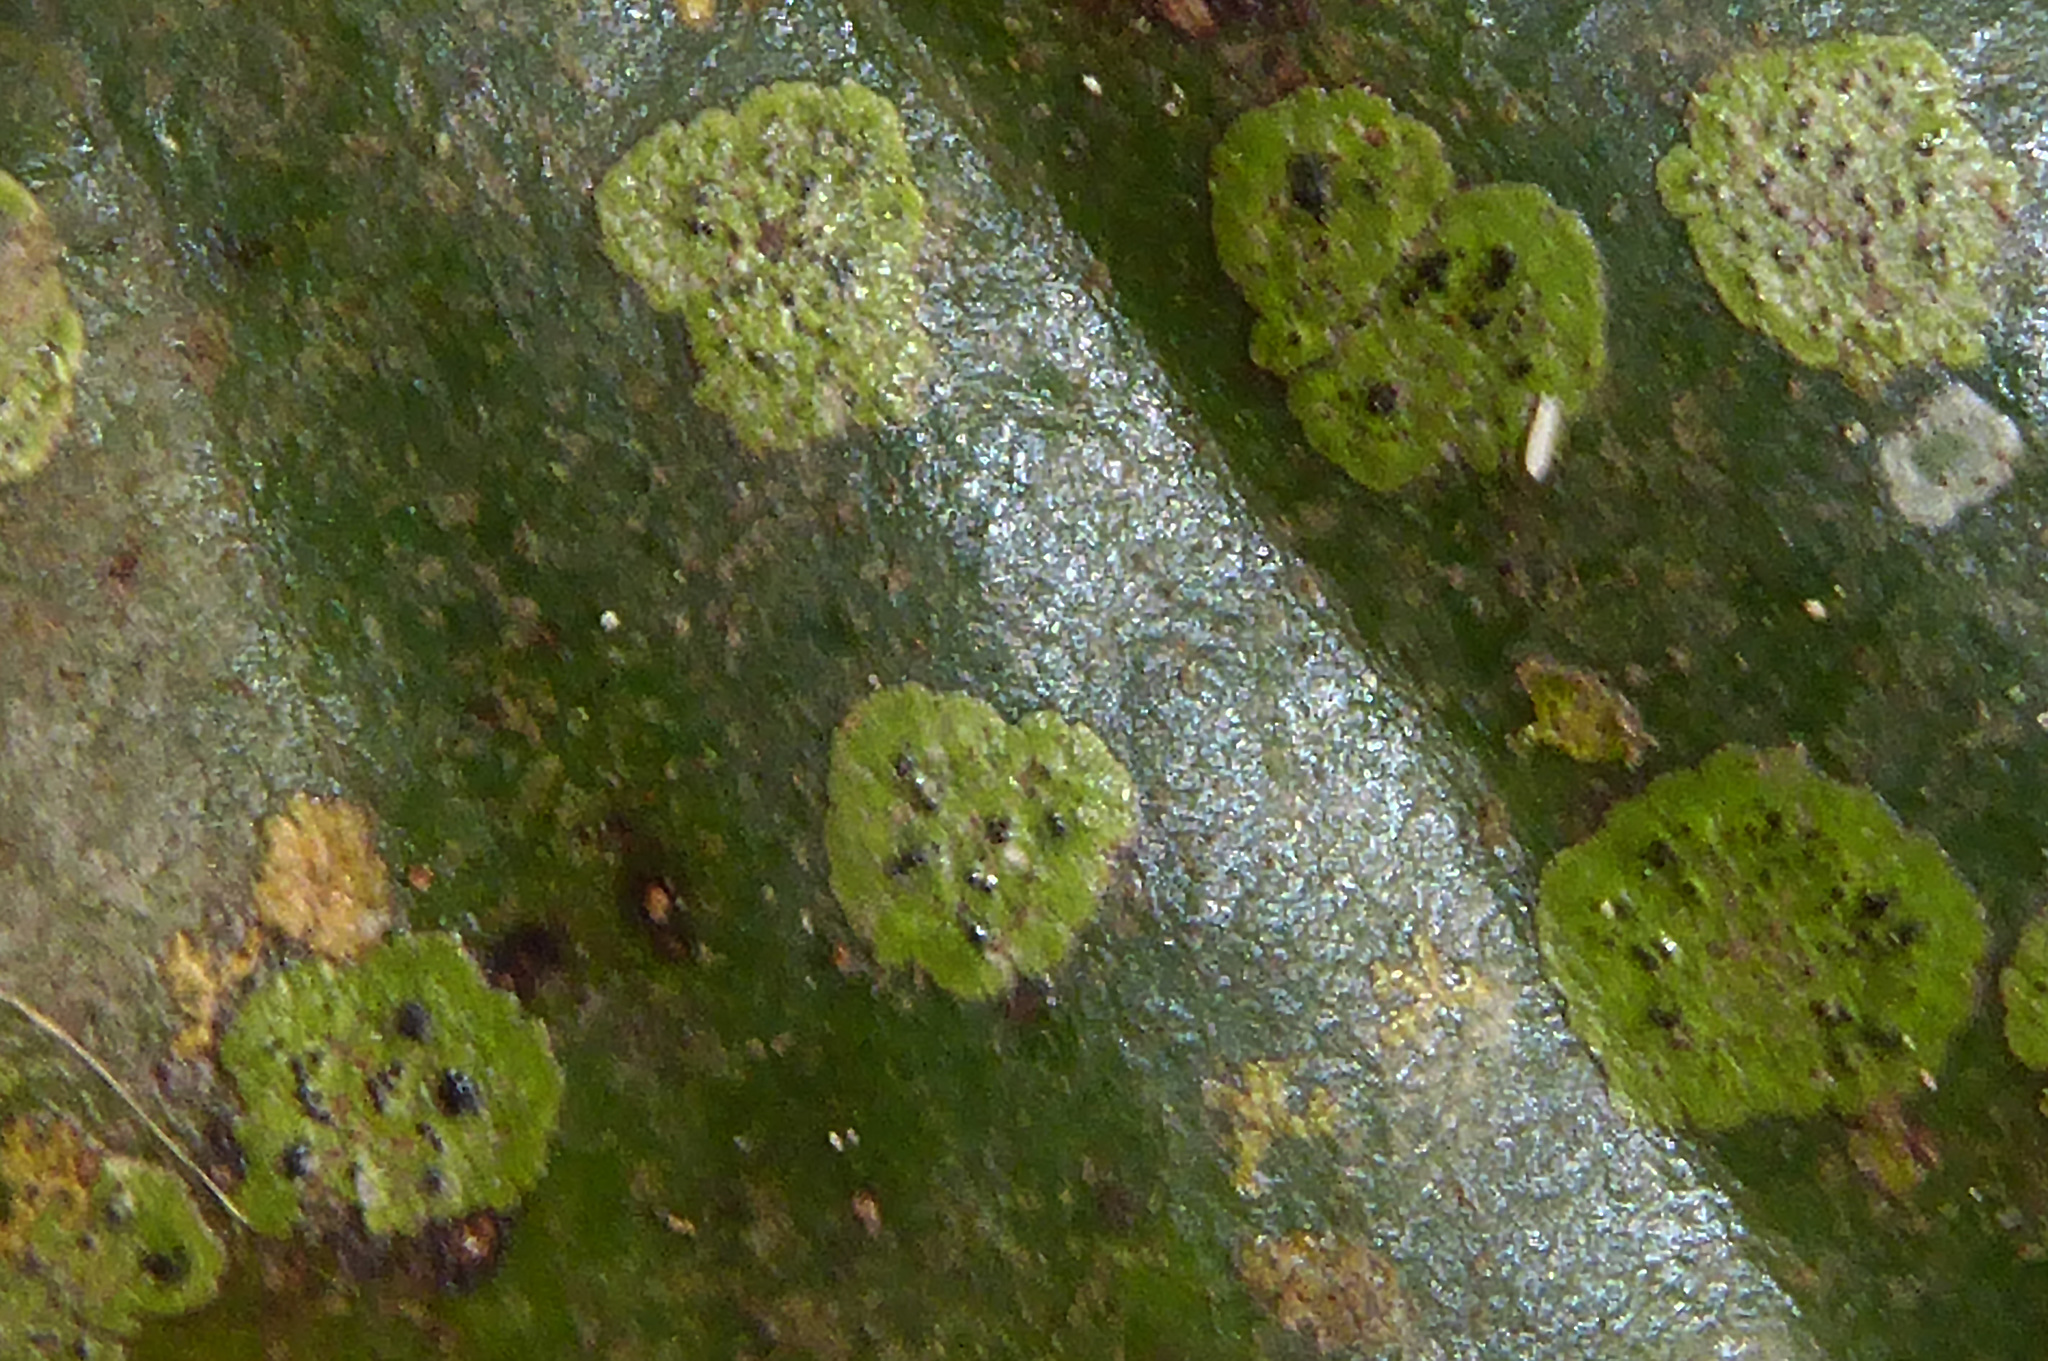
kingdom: Fungi
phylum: Ascomycota
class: Dothideomycetes
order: Strigulales
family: Strigulaceae
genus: Strigula
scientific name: Strigula smaragdula
